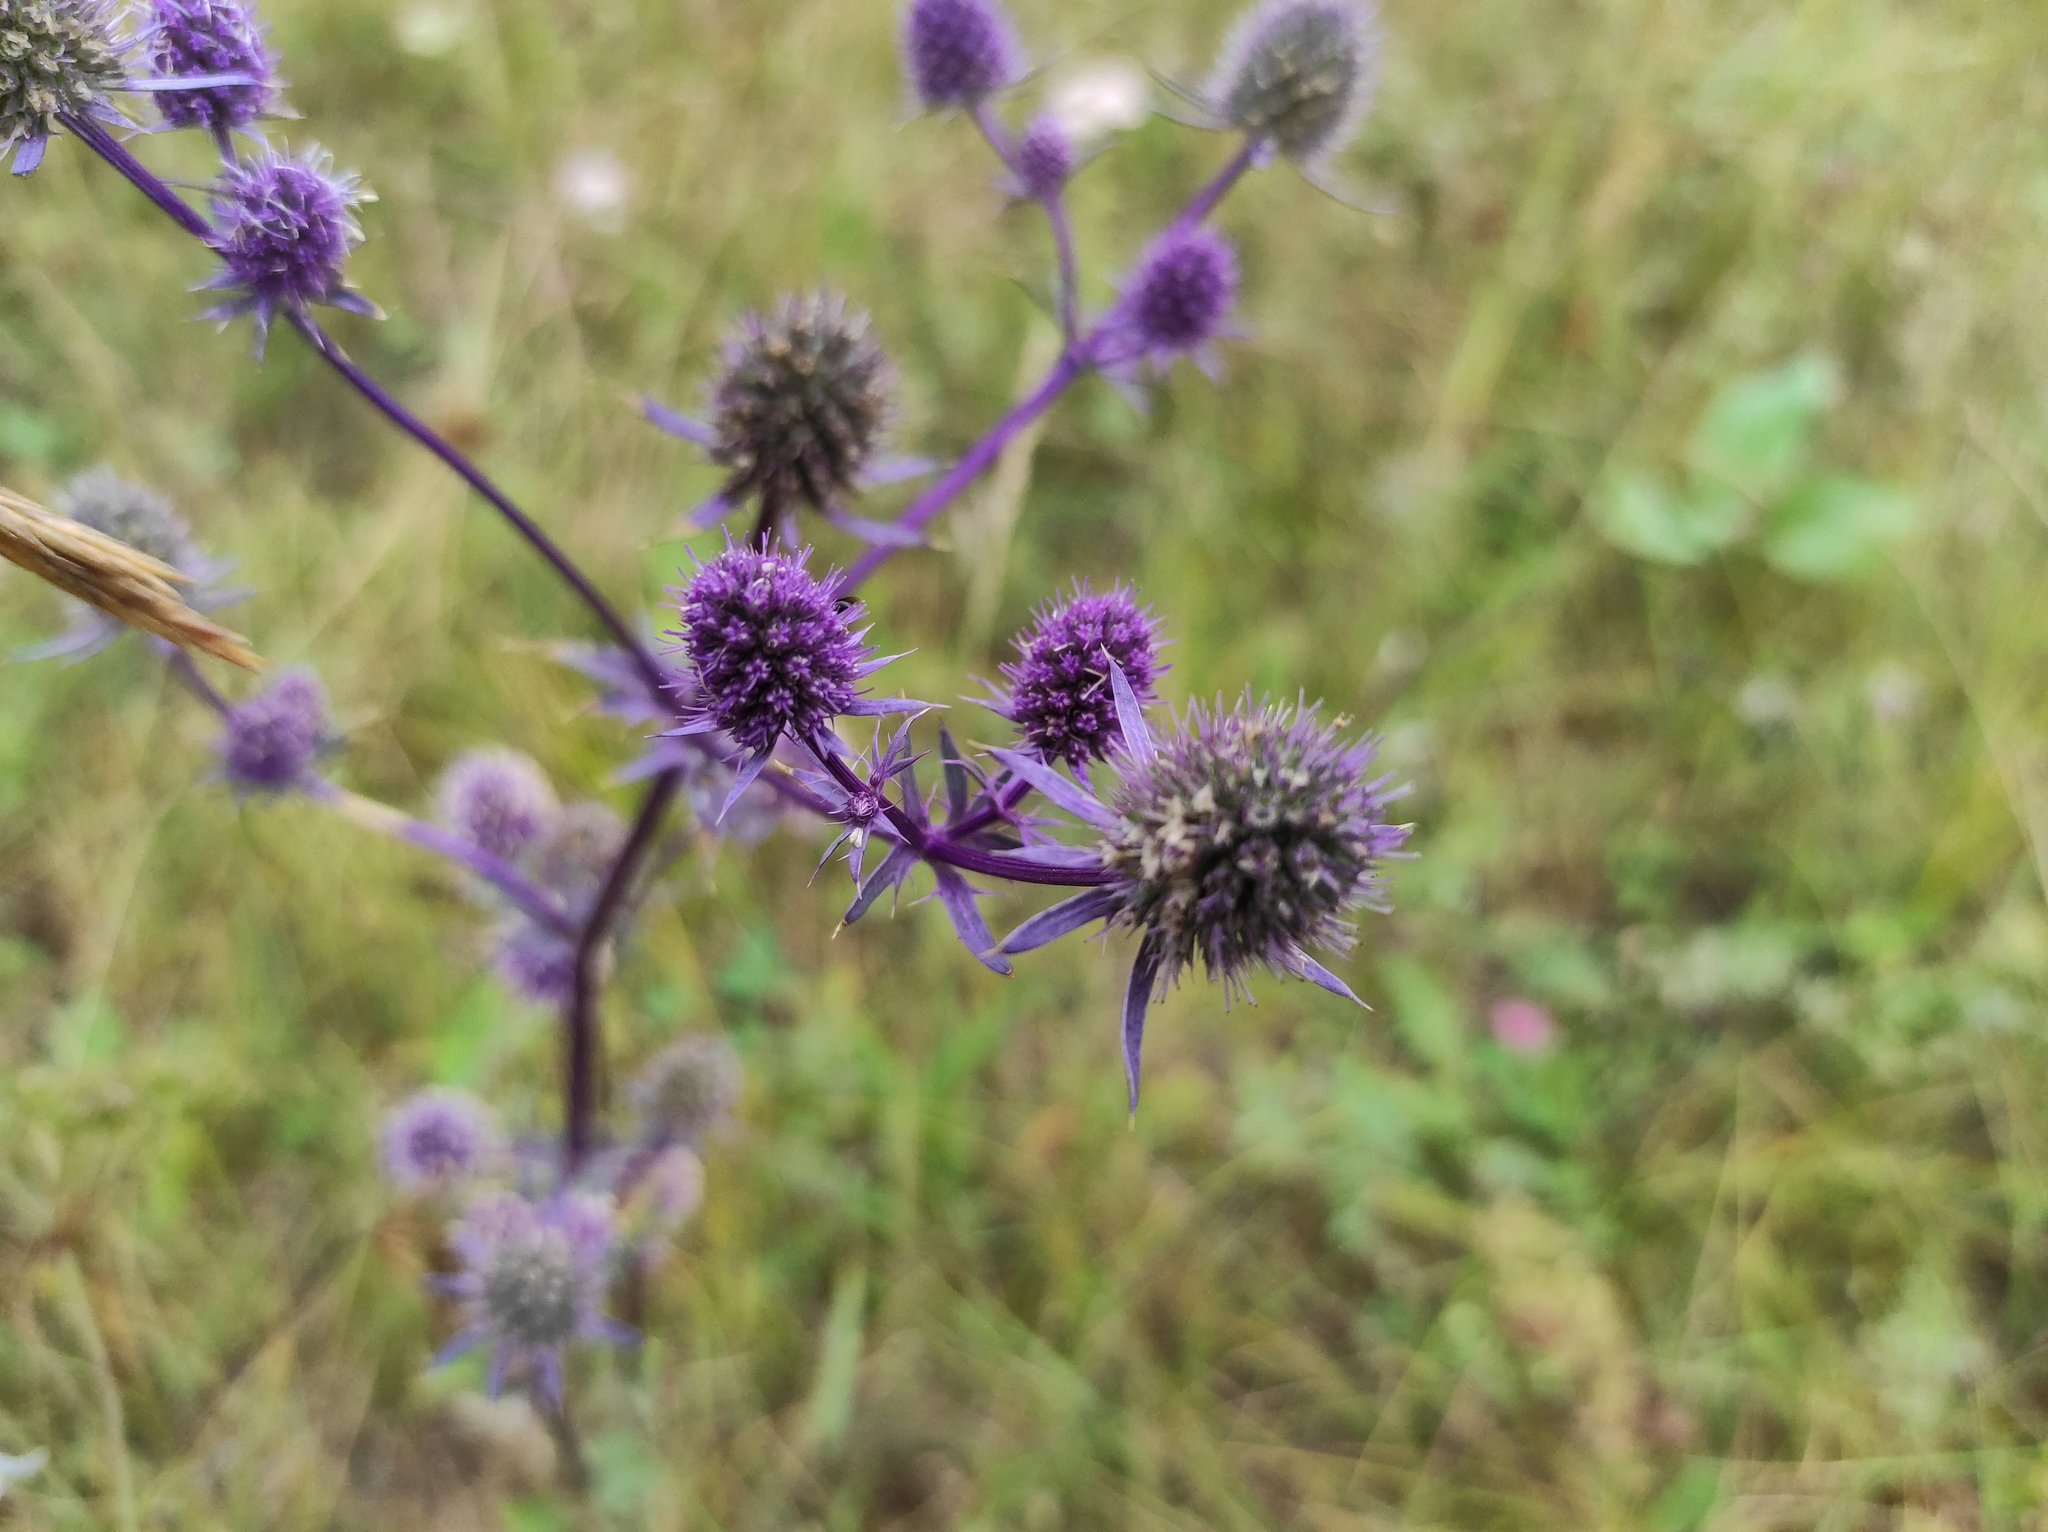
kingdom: Plantae
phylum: Tracheophyta
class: Magnoliopsida
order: Apiales
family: Apiaceae
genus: Eryngium
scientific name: Eryngium planum
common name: Blue eryngo
